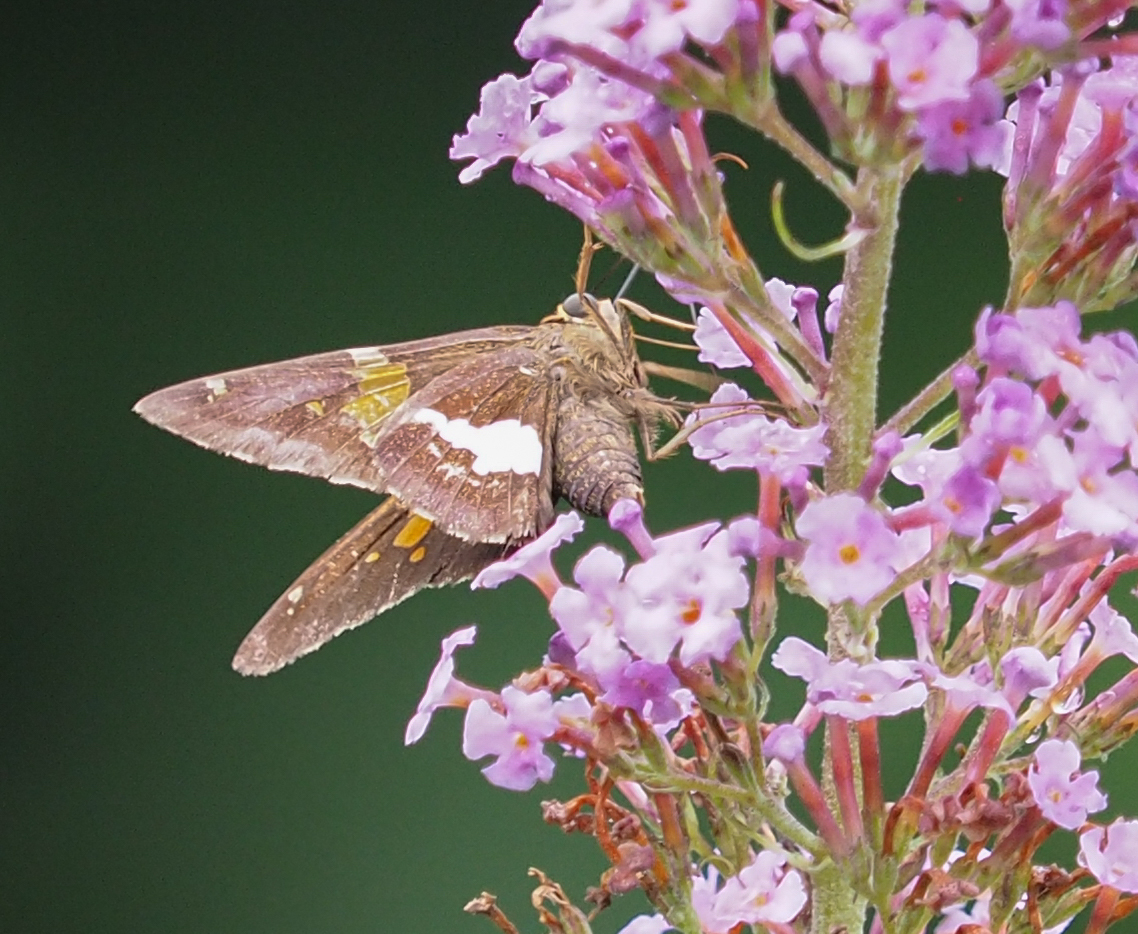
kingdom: Animalia
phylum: Arthropoda
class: Insecta
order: Lepidoptera
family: Hesperiidae
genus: Epargyreus
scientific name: Epargyreus clarus
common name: Silver-spotted skipper
